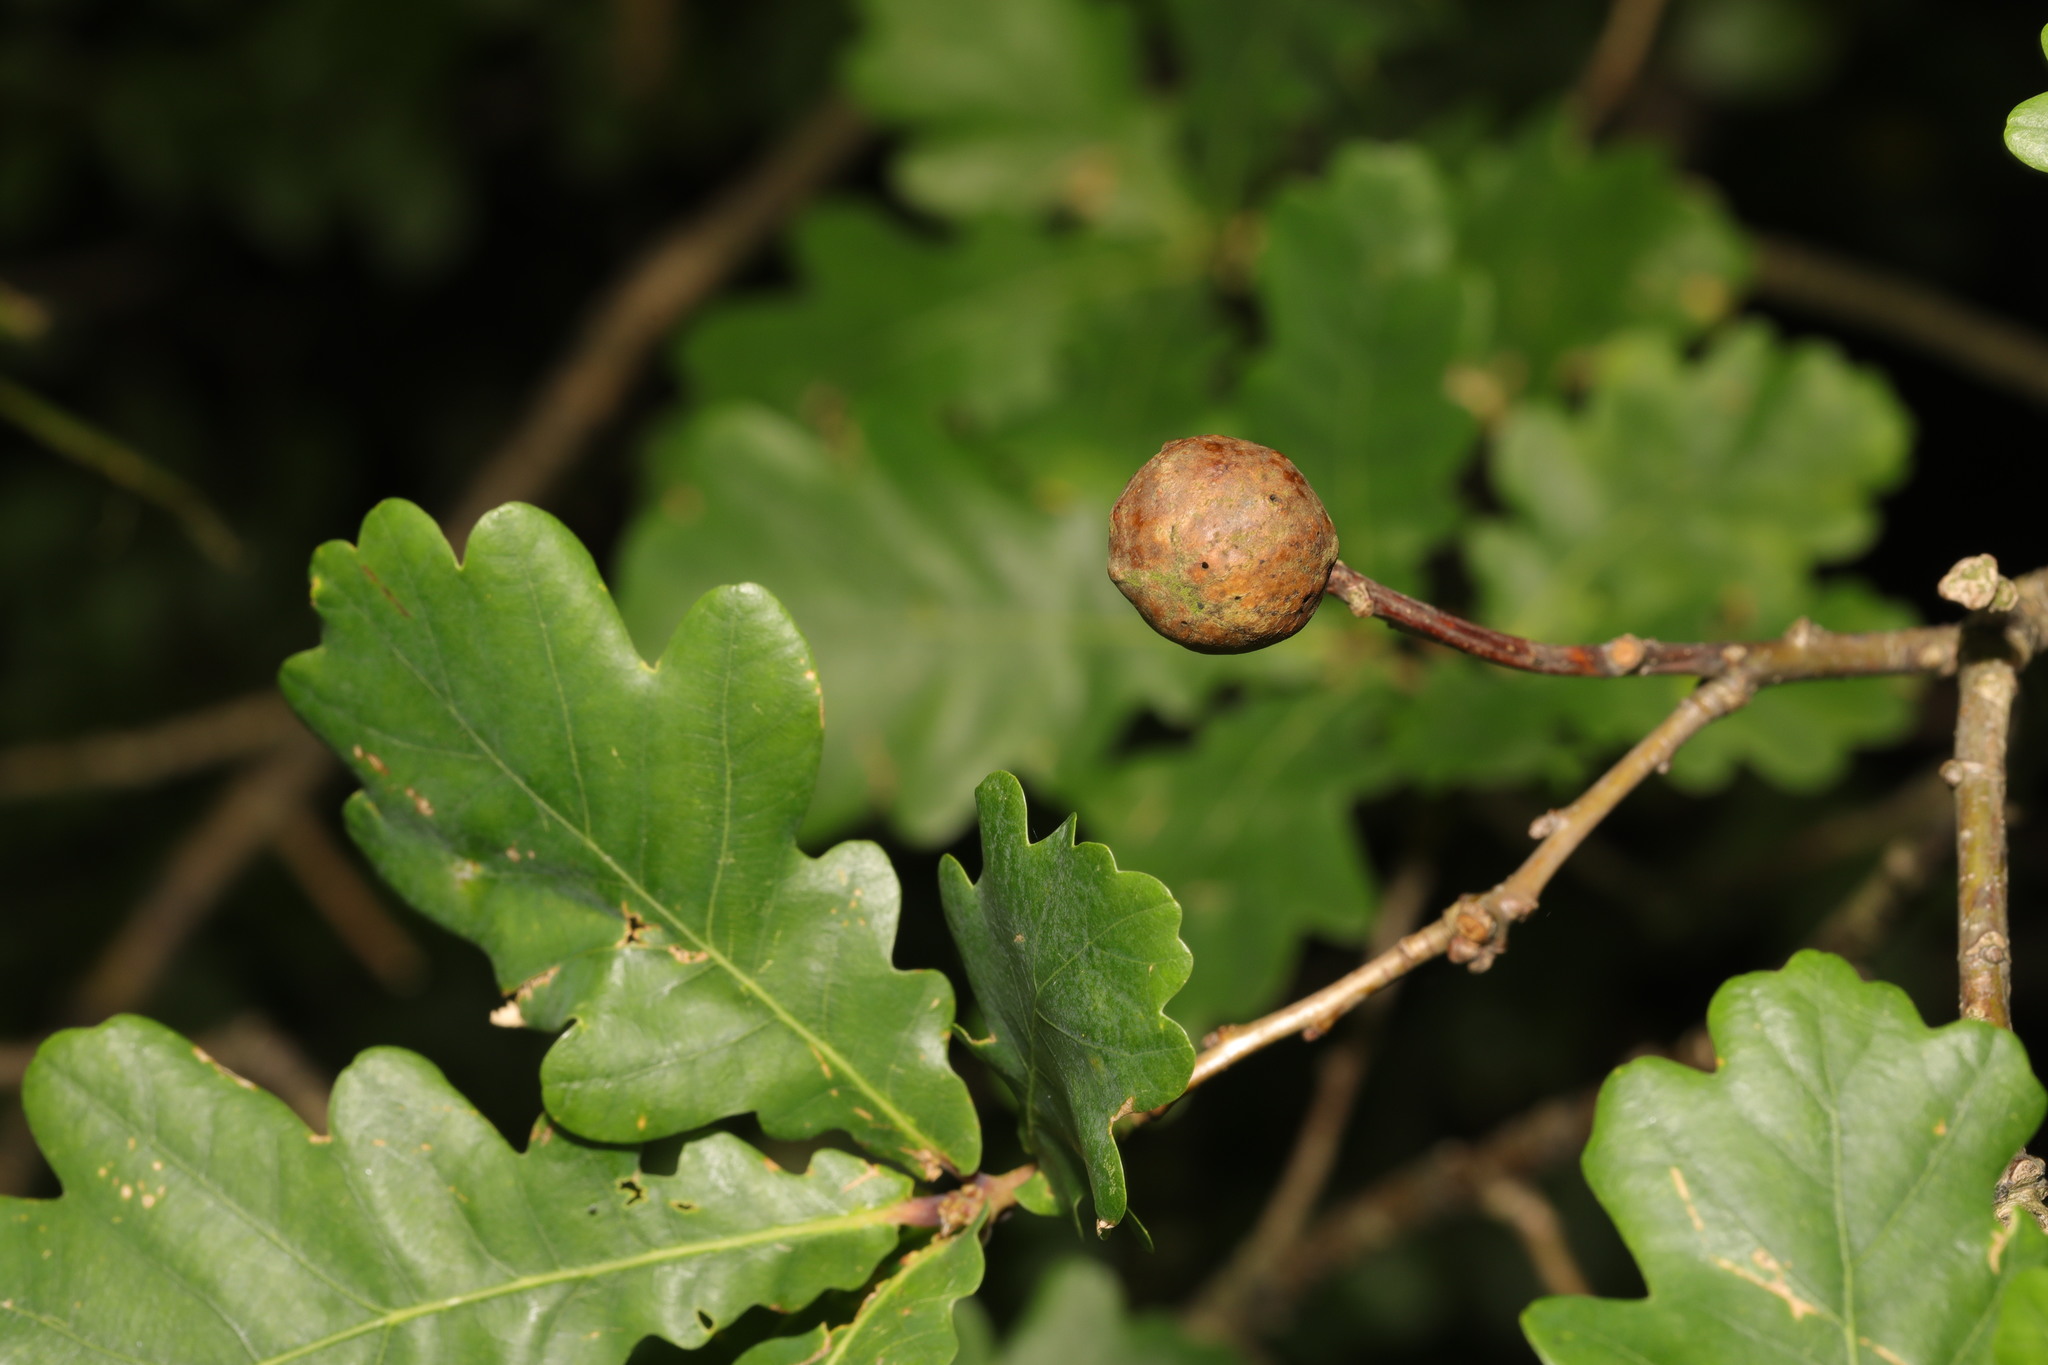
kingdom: Animalia
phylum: Arthropoda
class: Insecta
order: Hymenoptera
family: Cynipidae
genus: Andricus
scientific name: Andricus kollari
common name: Marble gall
